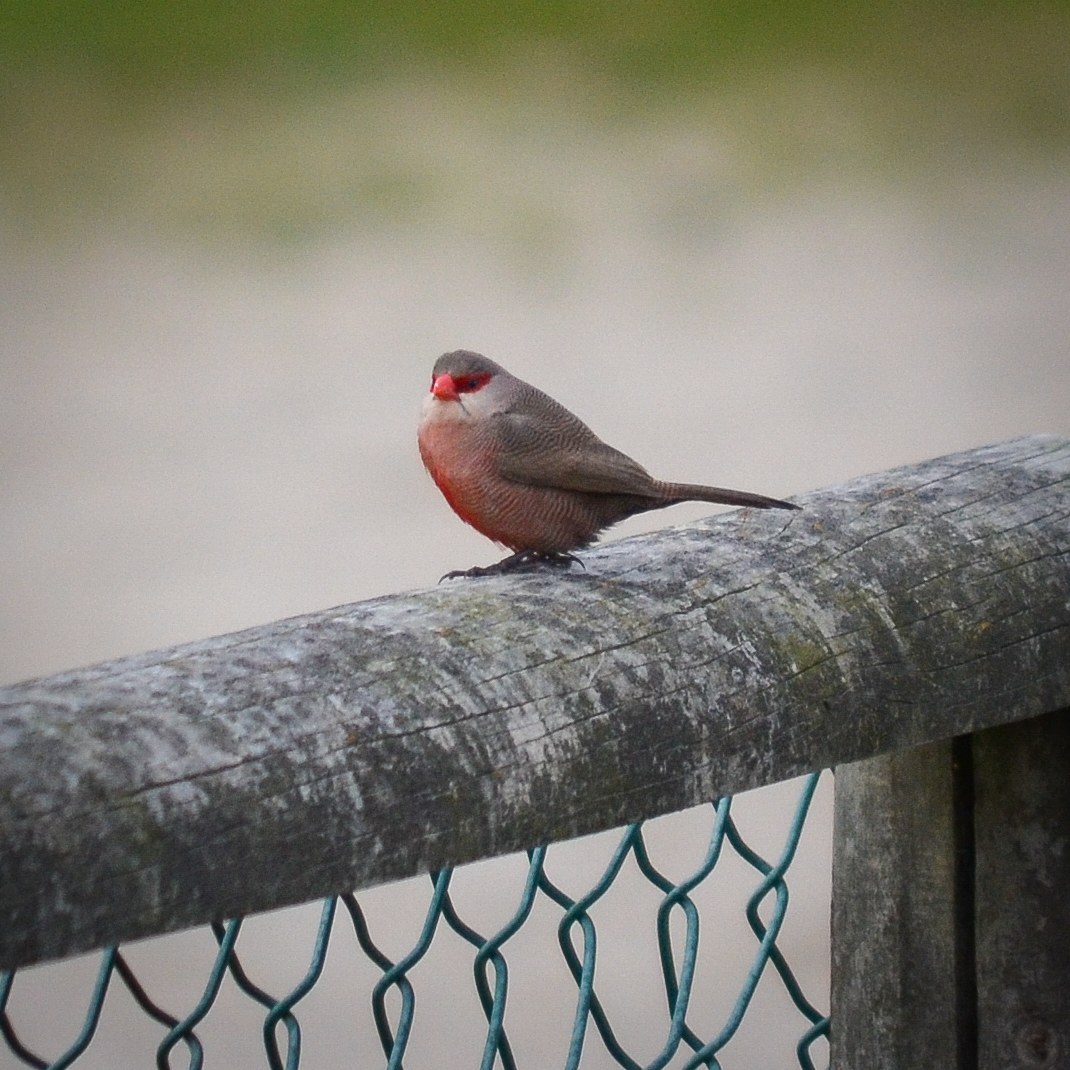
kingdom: Animalia
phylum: Chordata
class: Aves
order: Passeriformes
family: Estrildidae
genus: Estrilda
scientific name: Estrilda astrild
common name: Common waxbill
